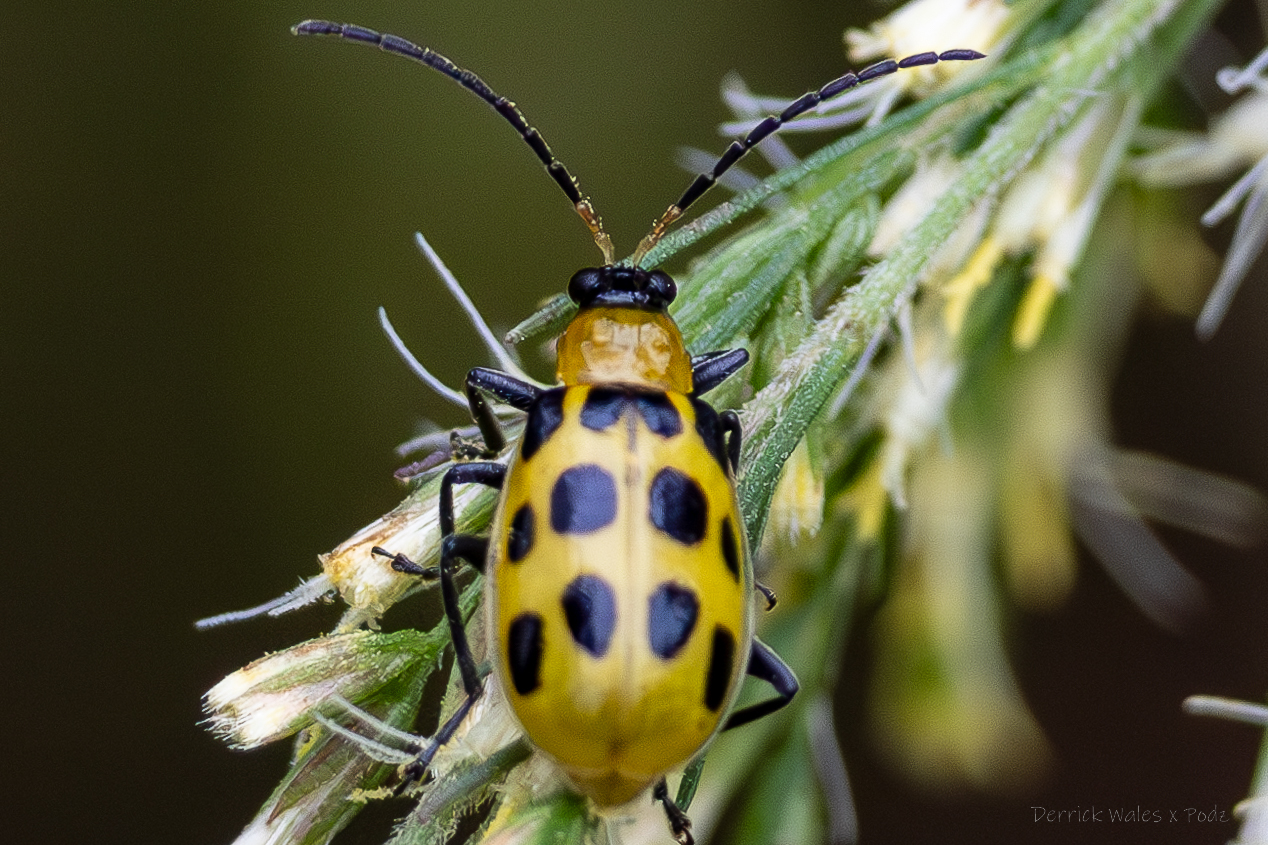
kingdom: Animalia
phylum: Arthropoda
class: Insecta
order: Coleoptera
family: Chrysomelidae
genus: Diabrotica
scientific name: Diabrotica undecimpunctata
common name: Spotted cucumber beetle
